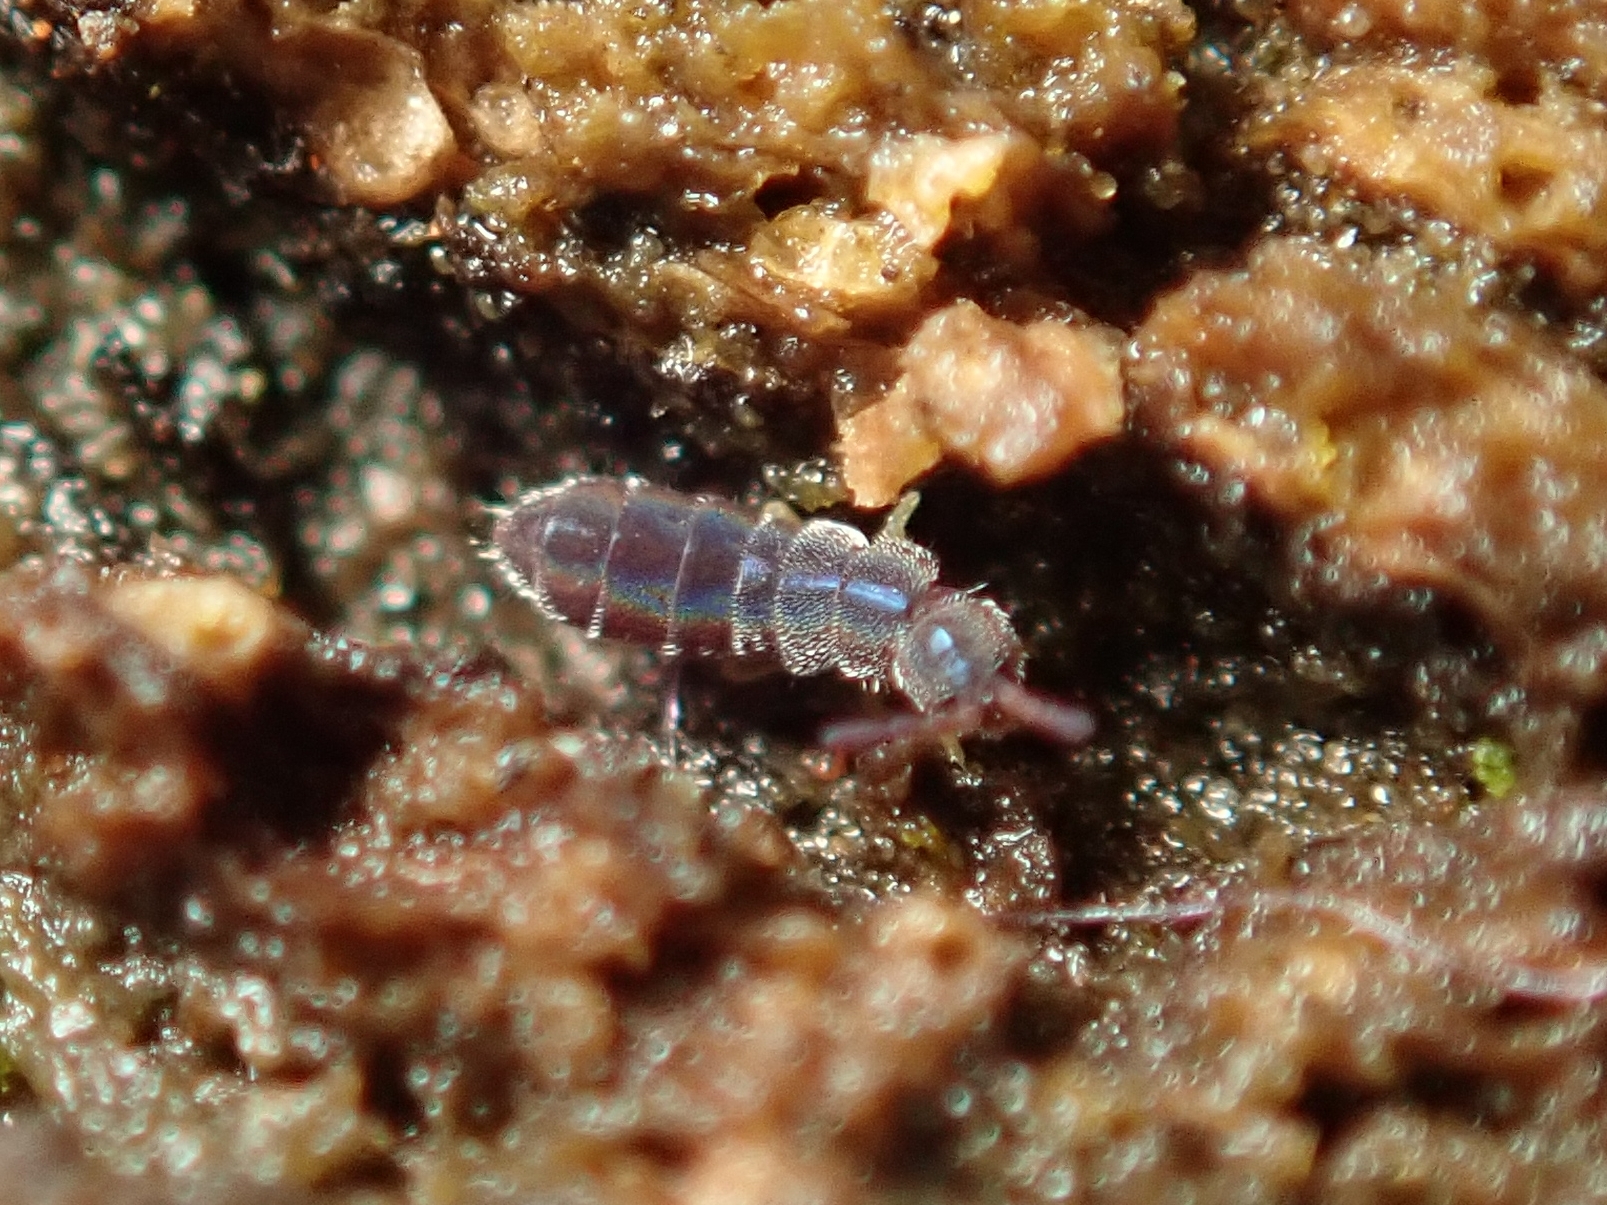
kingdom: Animalia
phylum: Arthropoda
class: Collembola
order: Entomobryomorpha
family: Isotomidae
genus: Vertagopus
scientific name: Vertagopus asiaticus
